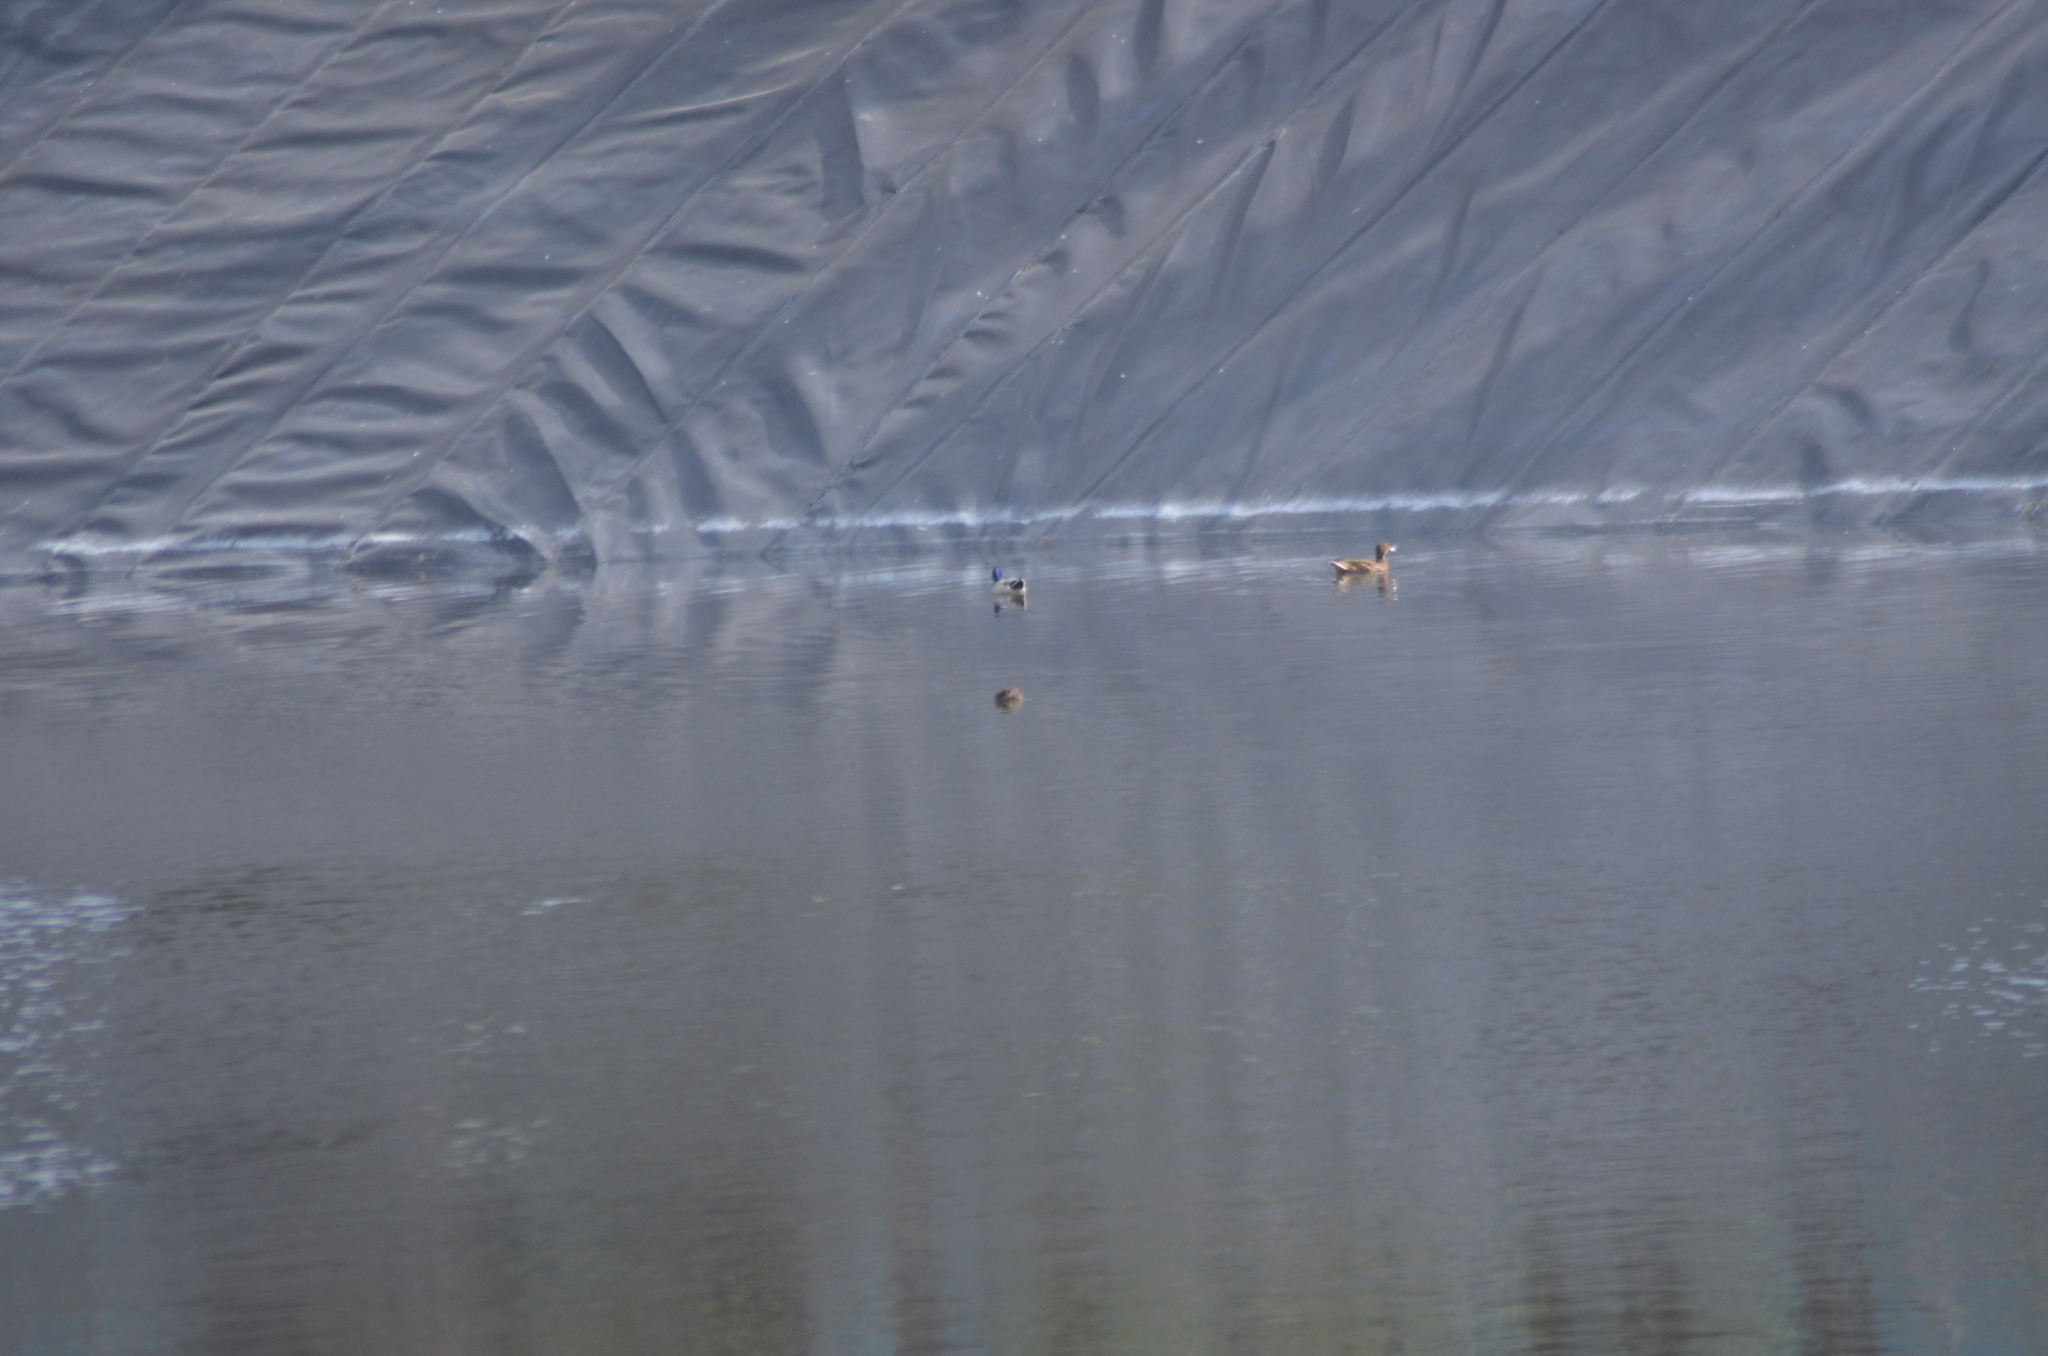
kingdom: Animalia
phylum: Chordata
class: Aves
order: Podicipediformes
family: Podicipedidae
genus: Tachybaptus
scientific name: Tachybaptus ruficollis
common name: Little grebe
